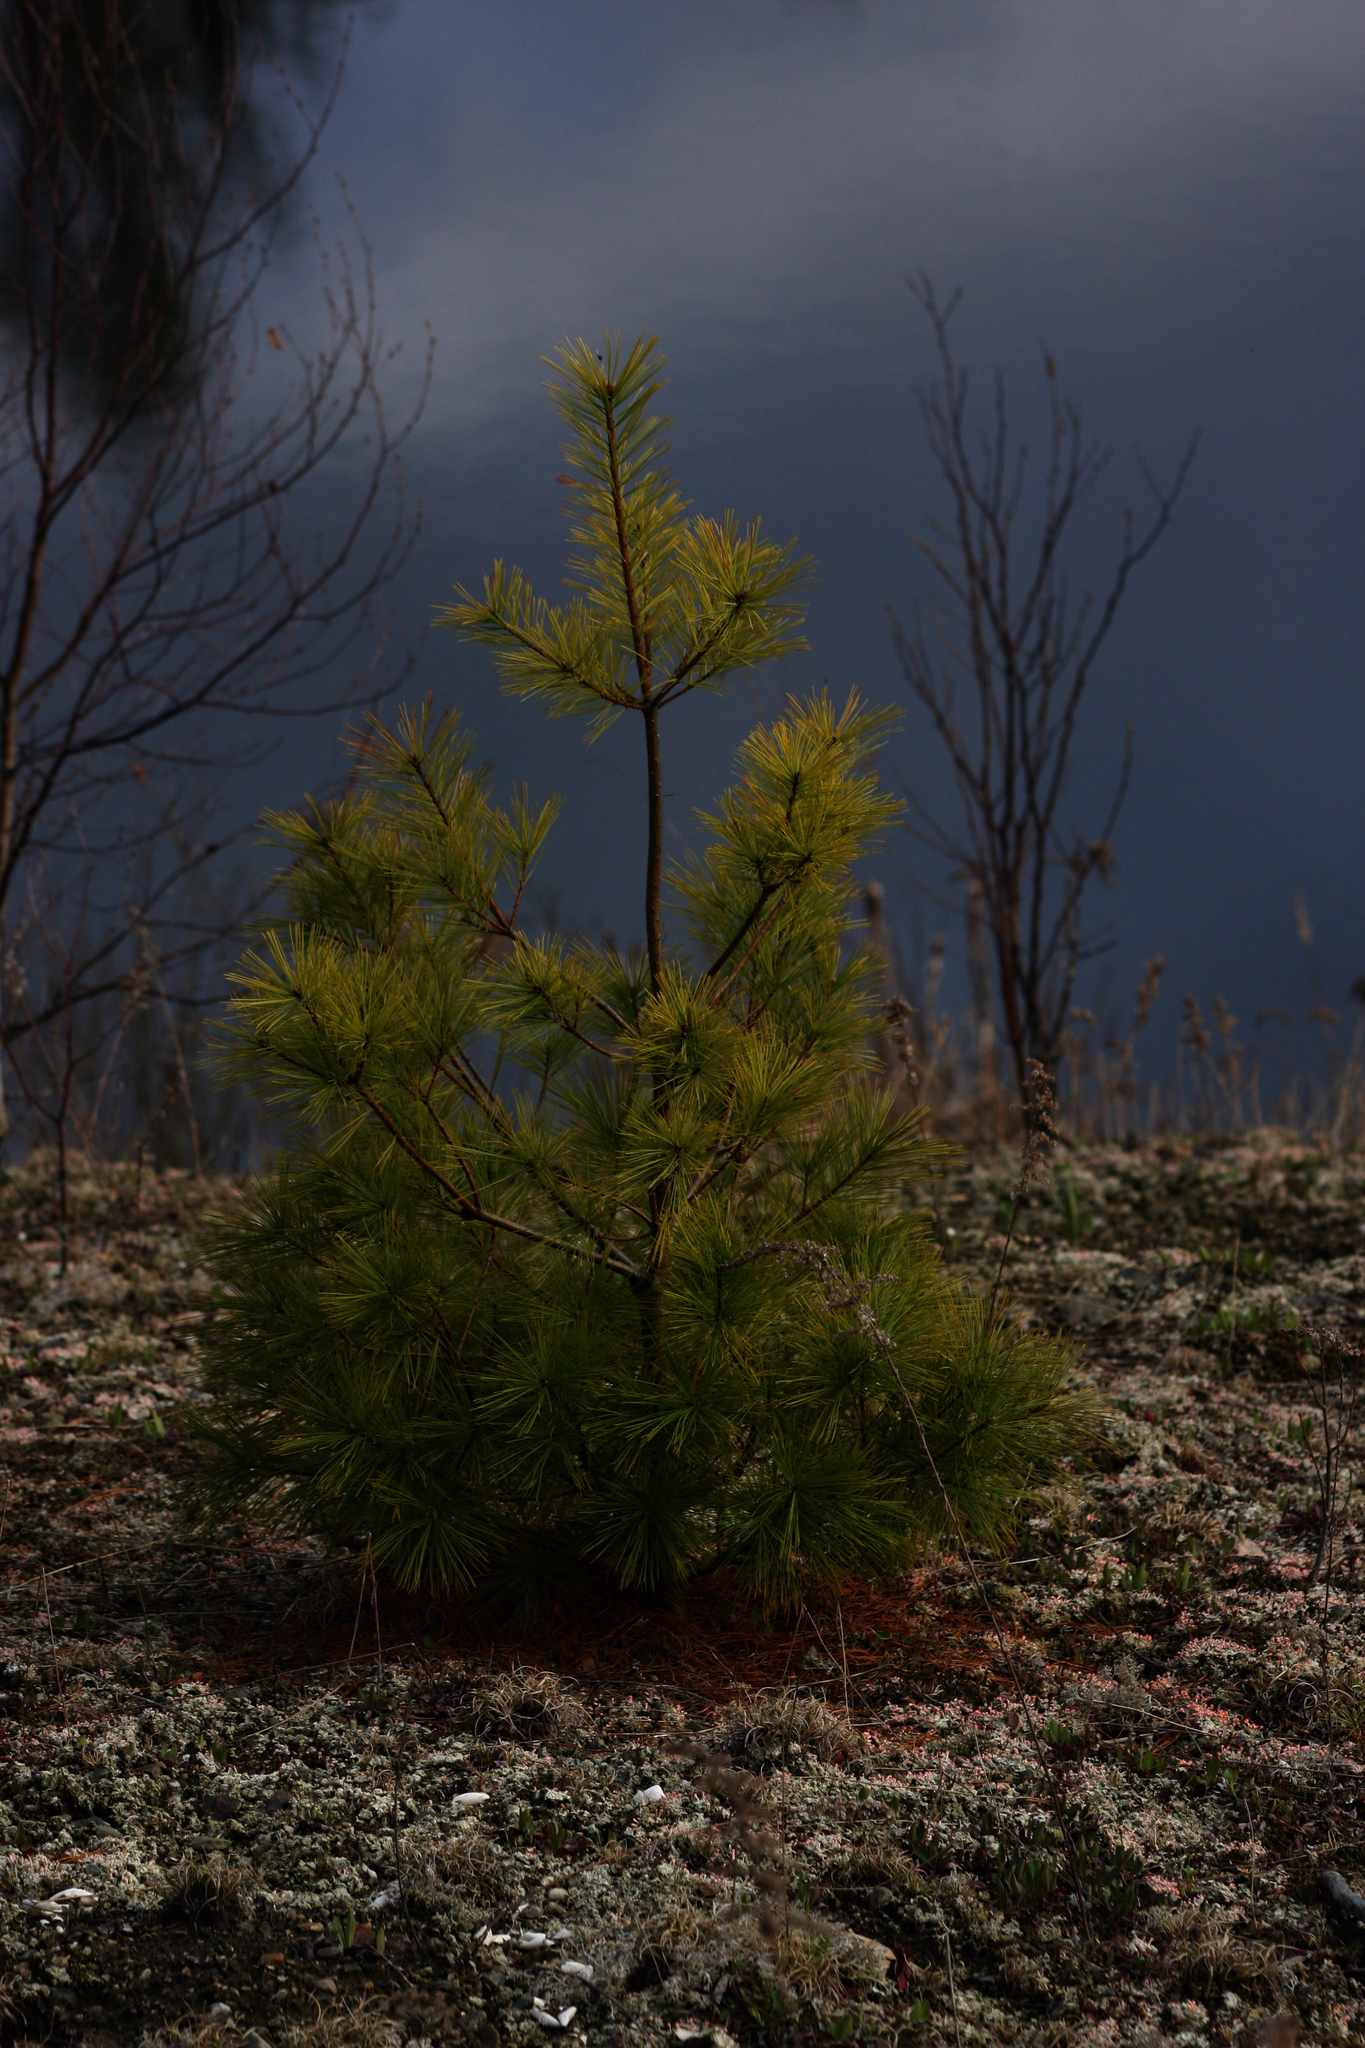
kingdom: Plantae
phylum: Tracheophyta
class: Pinopsida
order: Pinales
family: Pinaceae
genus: Pinus
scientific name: Pinus strobus
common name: Weymouth pine
